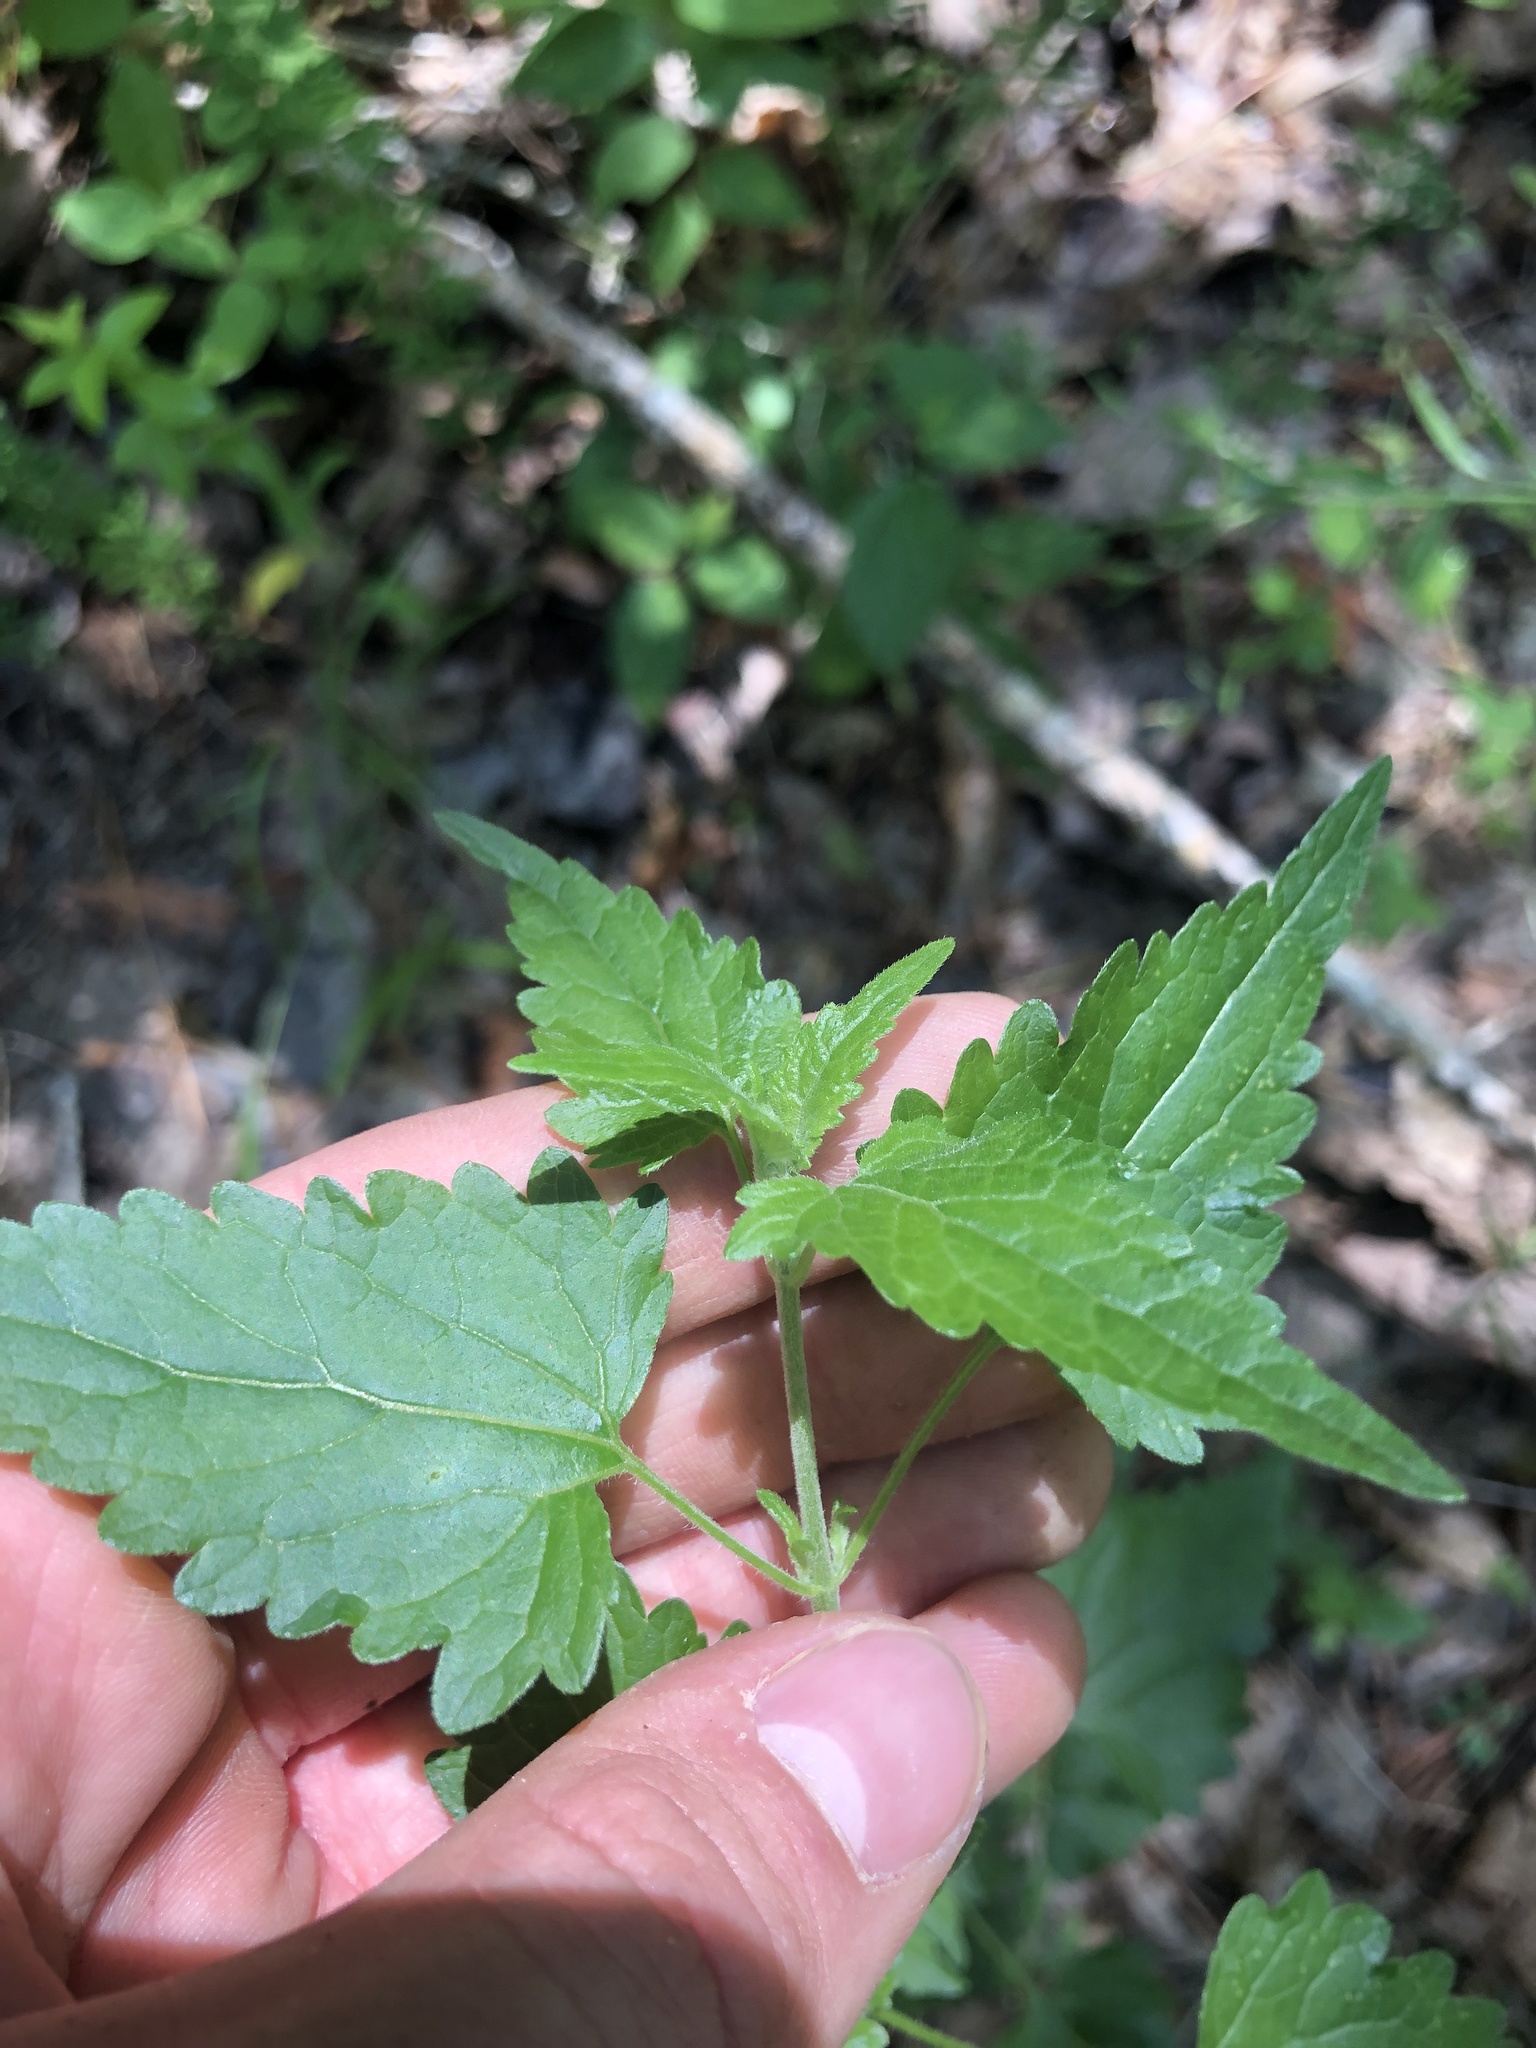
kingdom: Plantae
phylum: Tracheophyta
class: Magnoliopsida
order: Asterales
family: Asteraceae
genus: Fleischmannia
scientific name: Fleischmannia incarnata
